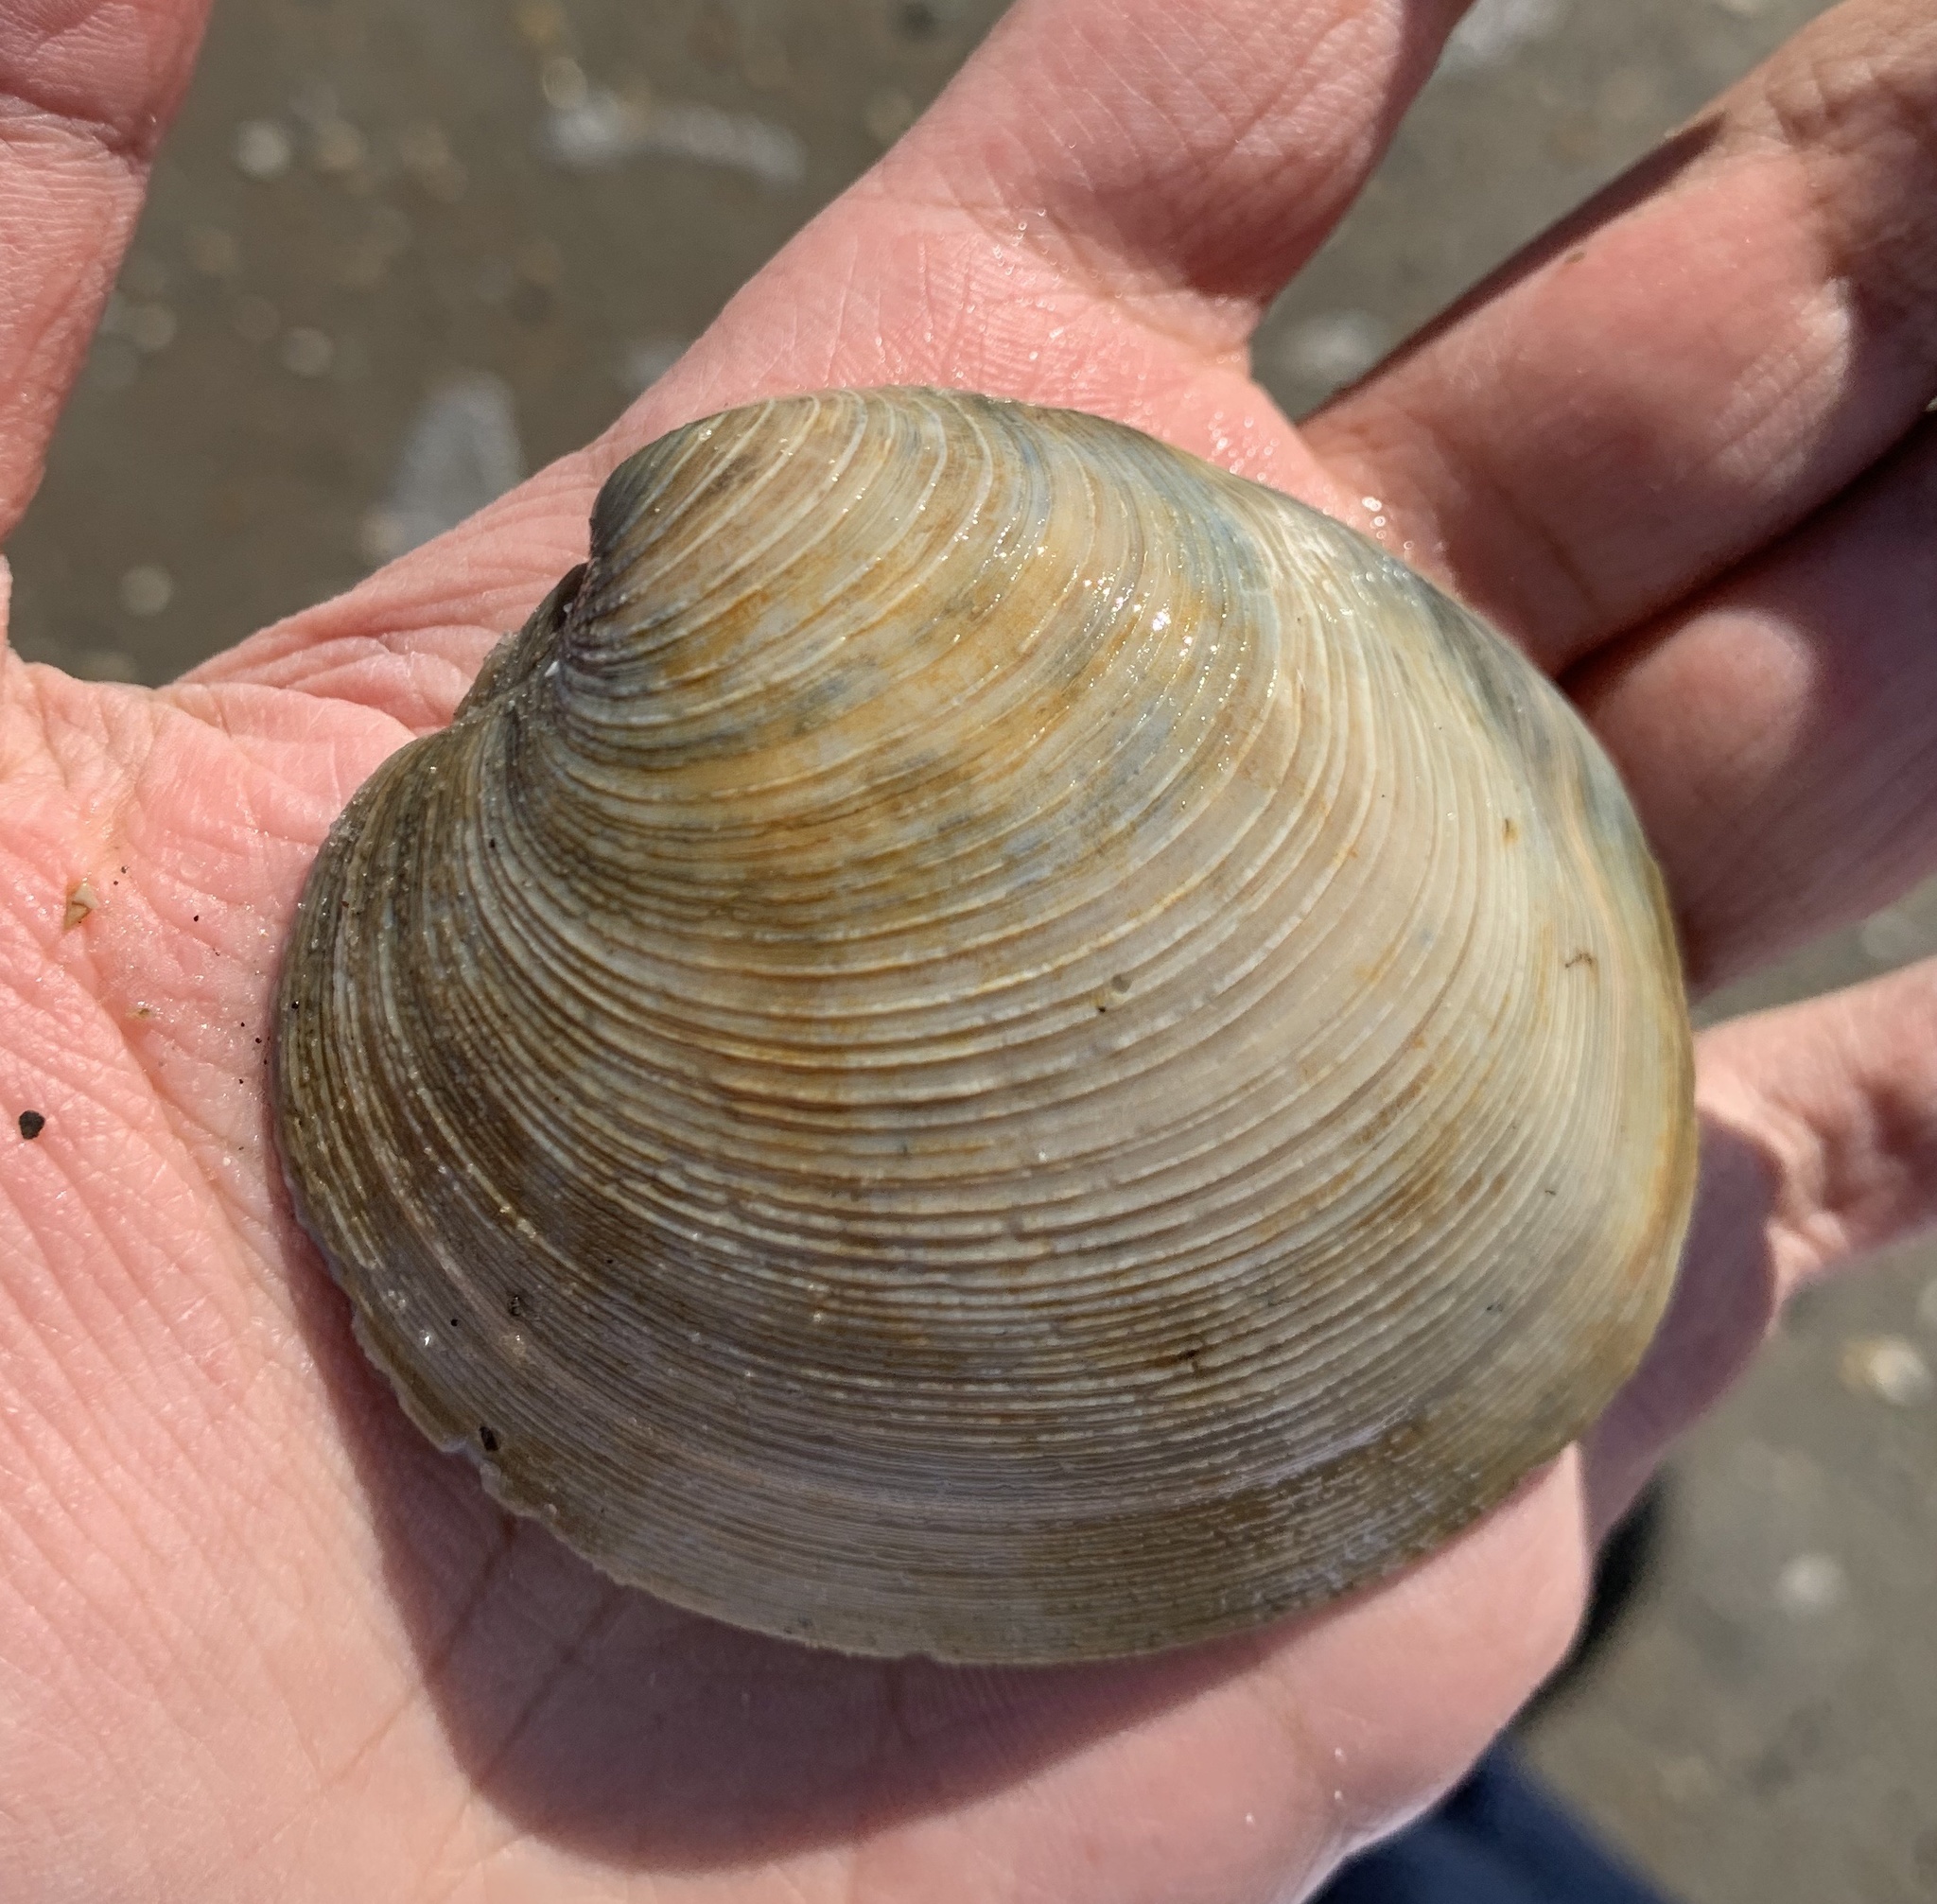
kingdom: Animalia
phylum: Mollusca
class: Bivalvia
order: Venerida
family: Veneridae
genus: Mercenaria
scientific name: Mercenaria campechiensis
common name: Südliche quahog-muschel
